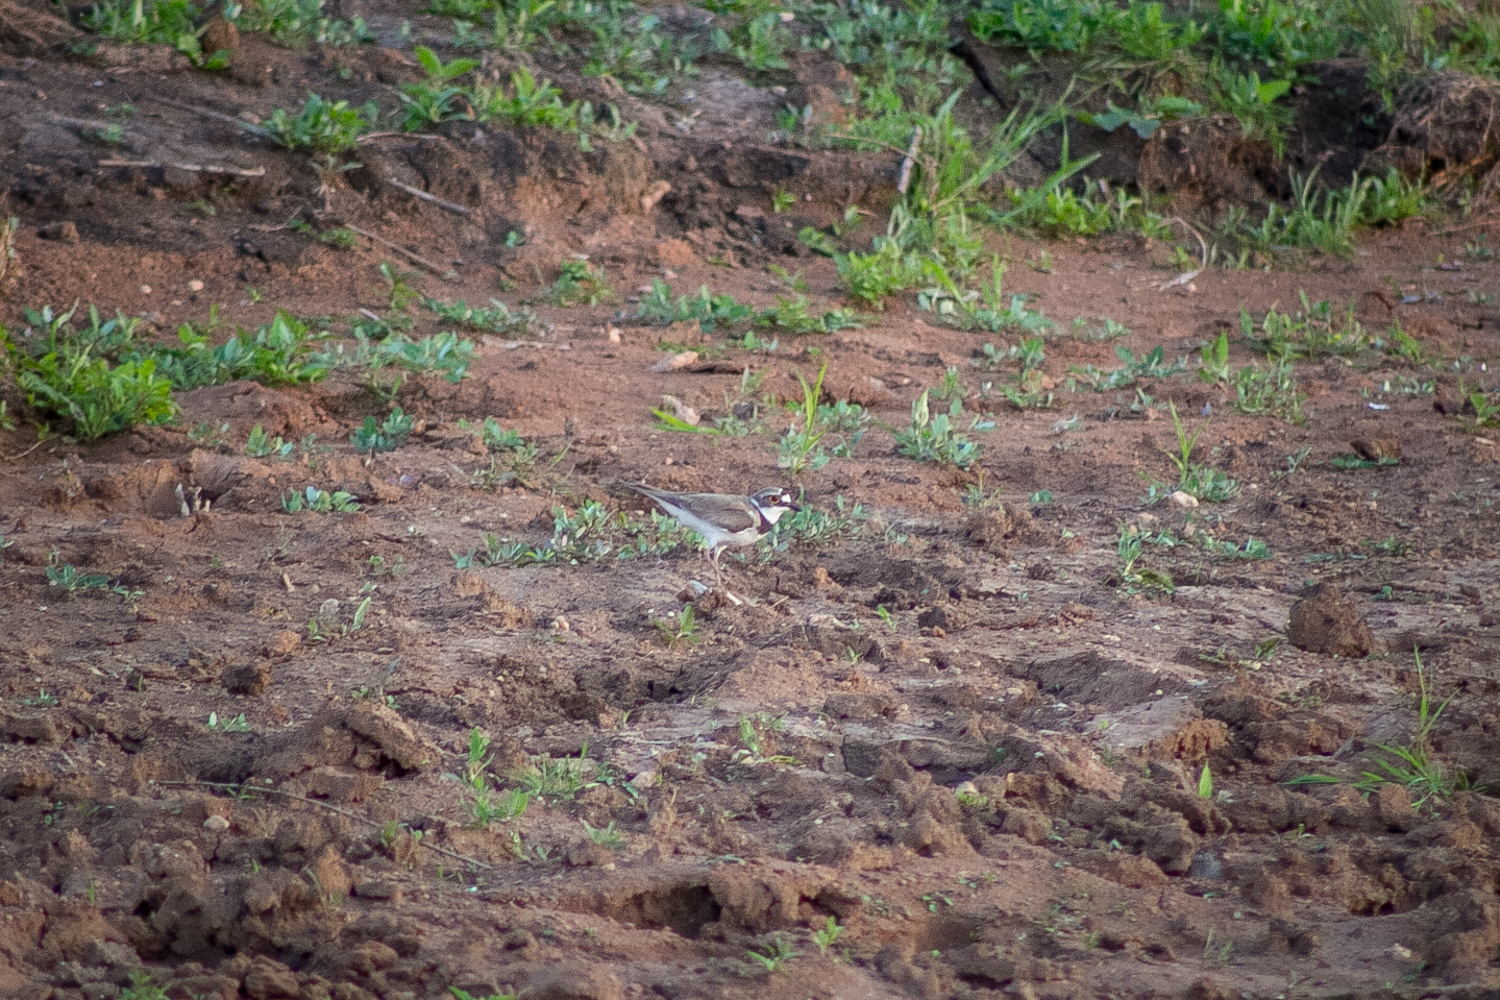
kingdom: Animalia
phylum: Chordata
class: Aves
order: Charadriiformes
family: Charadriidae
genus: Charadrius
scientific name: Charadrius dubius
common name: Little ringed plover
